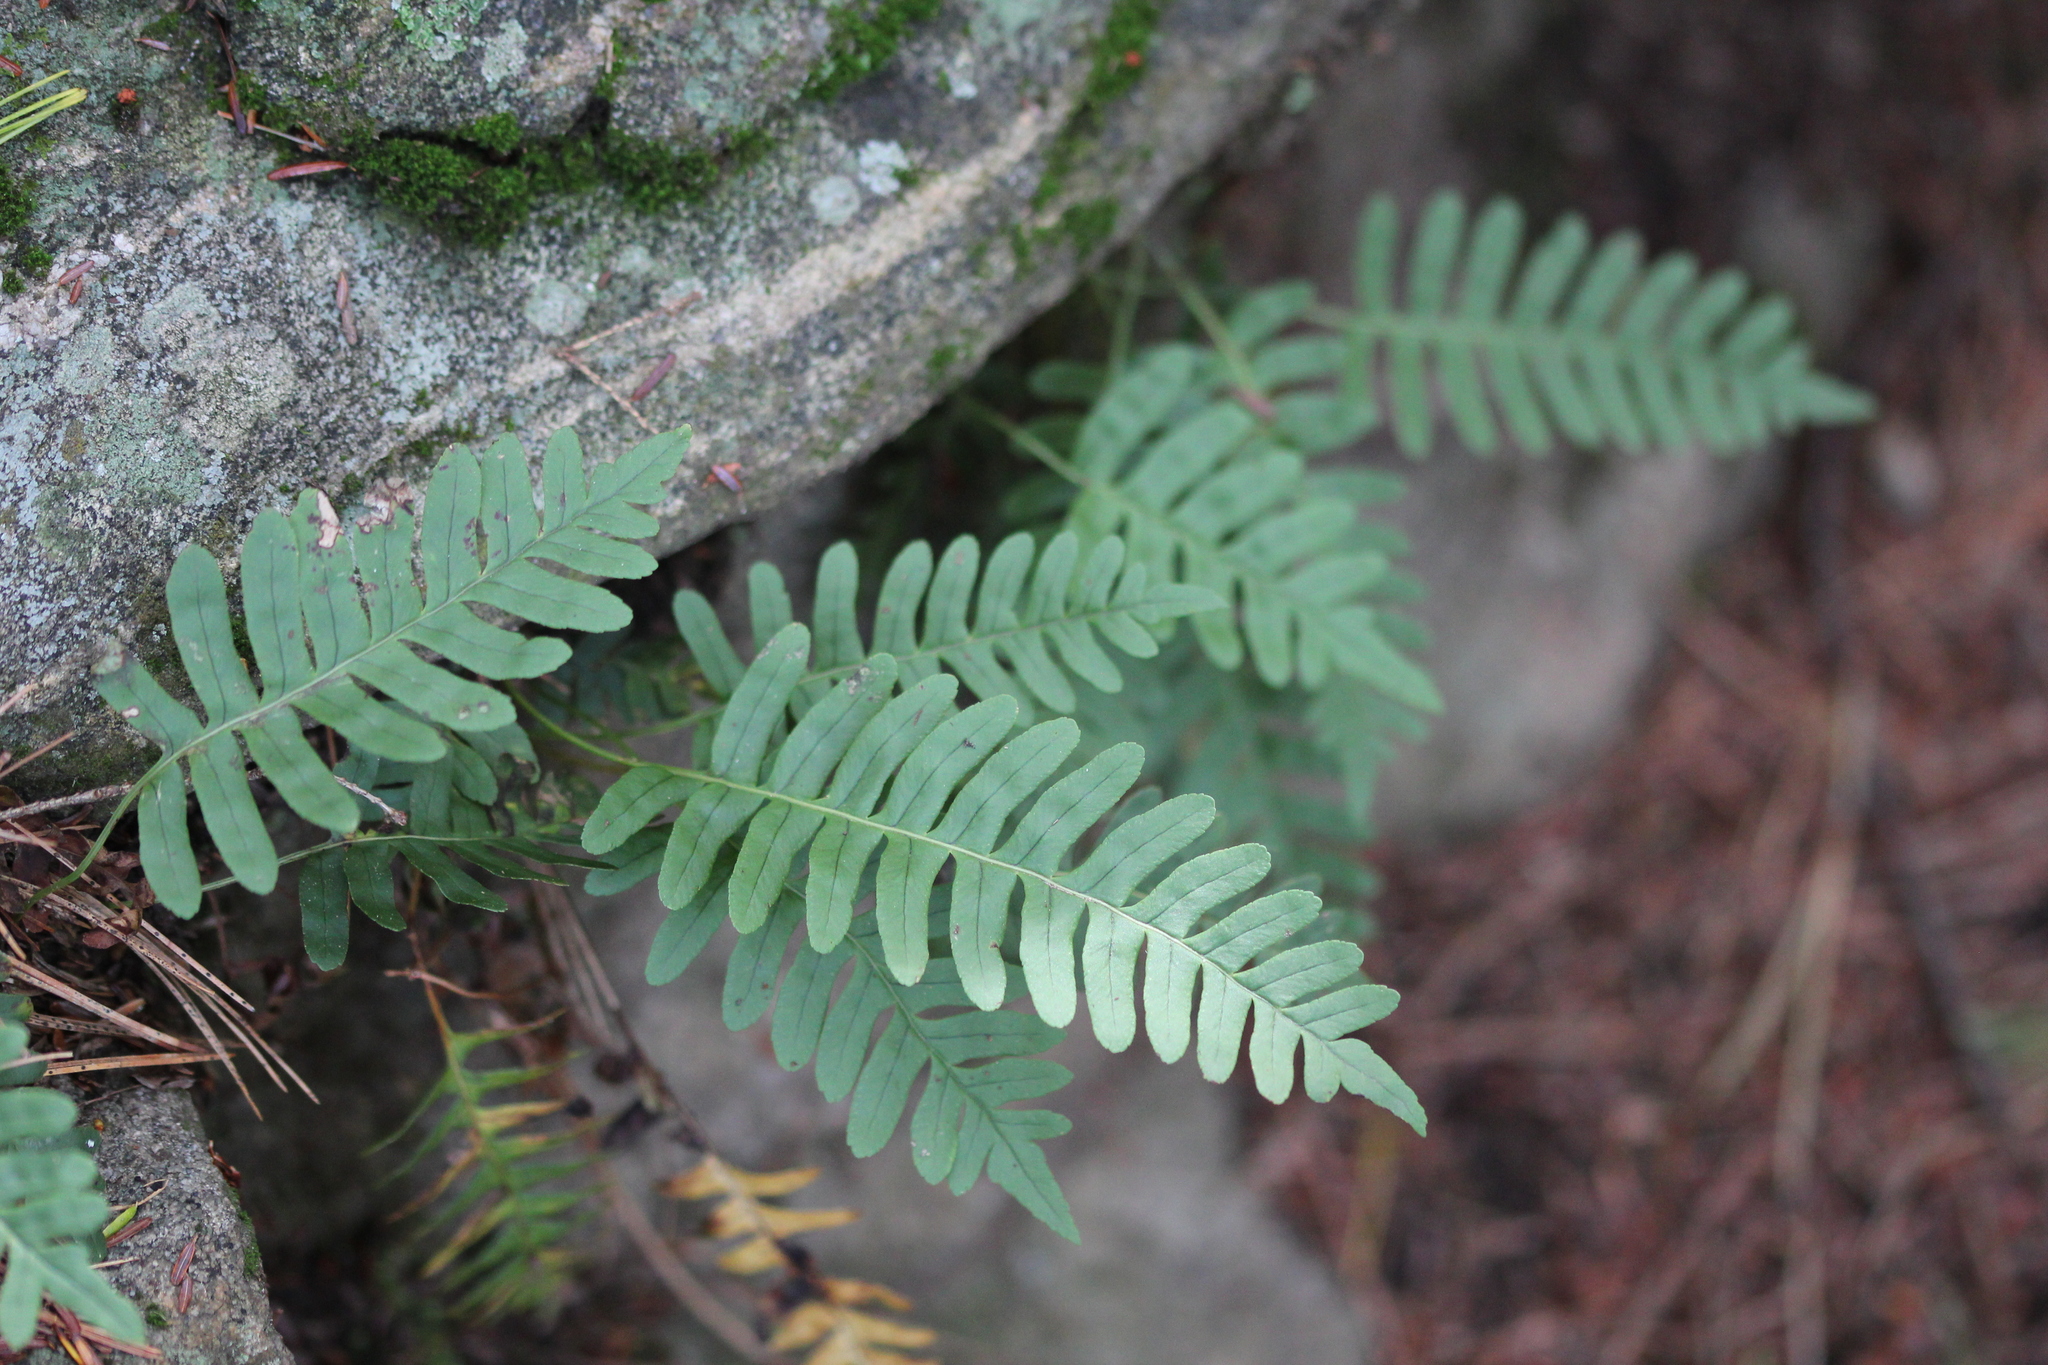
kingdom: Plantae
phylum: Tracheophyta
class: Polypodiopsida
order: Polypodiales
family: Polypodiaceae
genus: Polypodium
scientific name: Polypodium virginianum
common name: American wall fern
